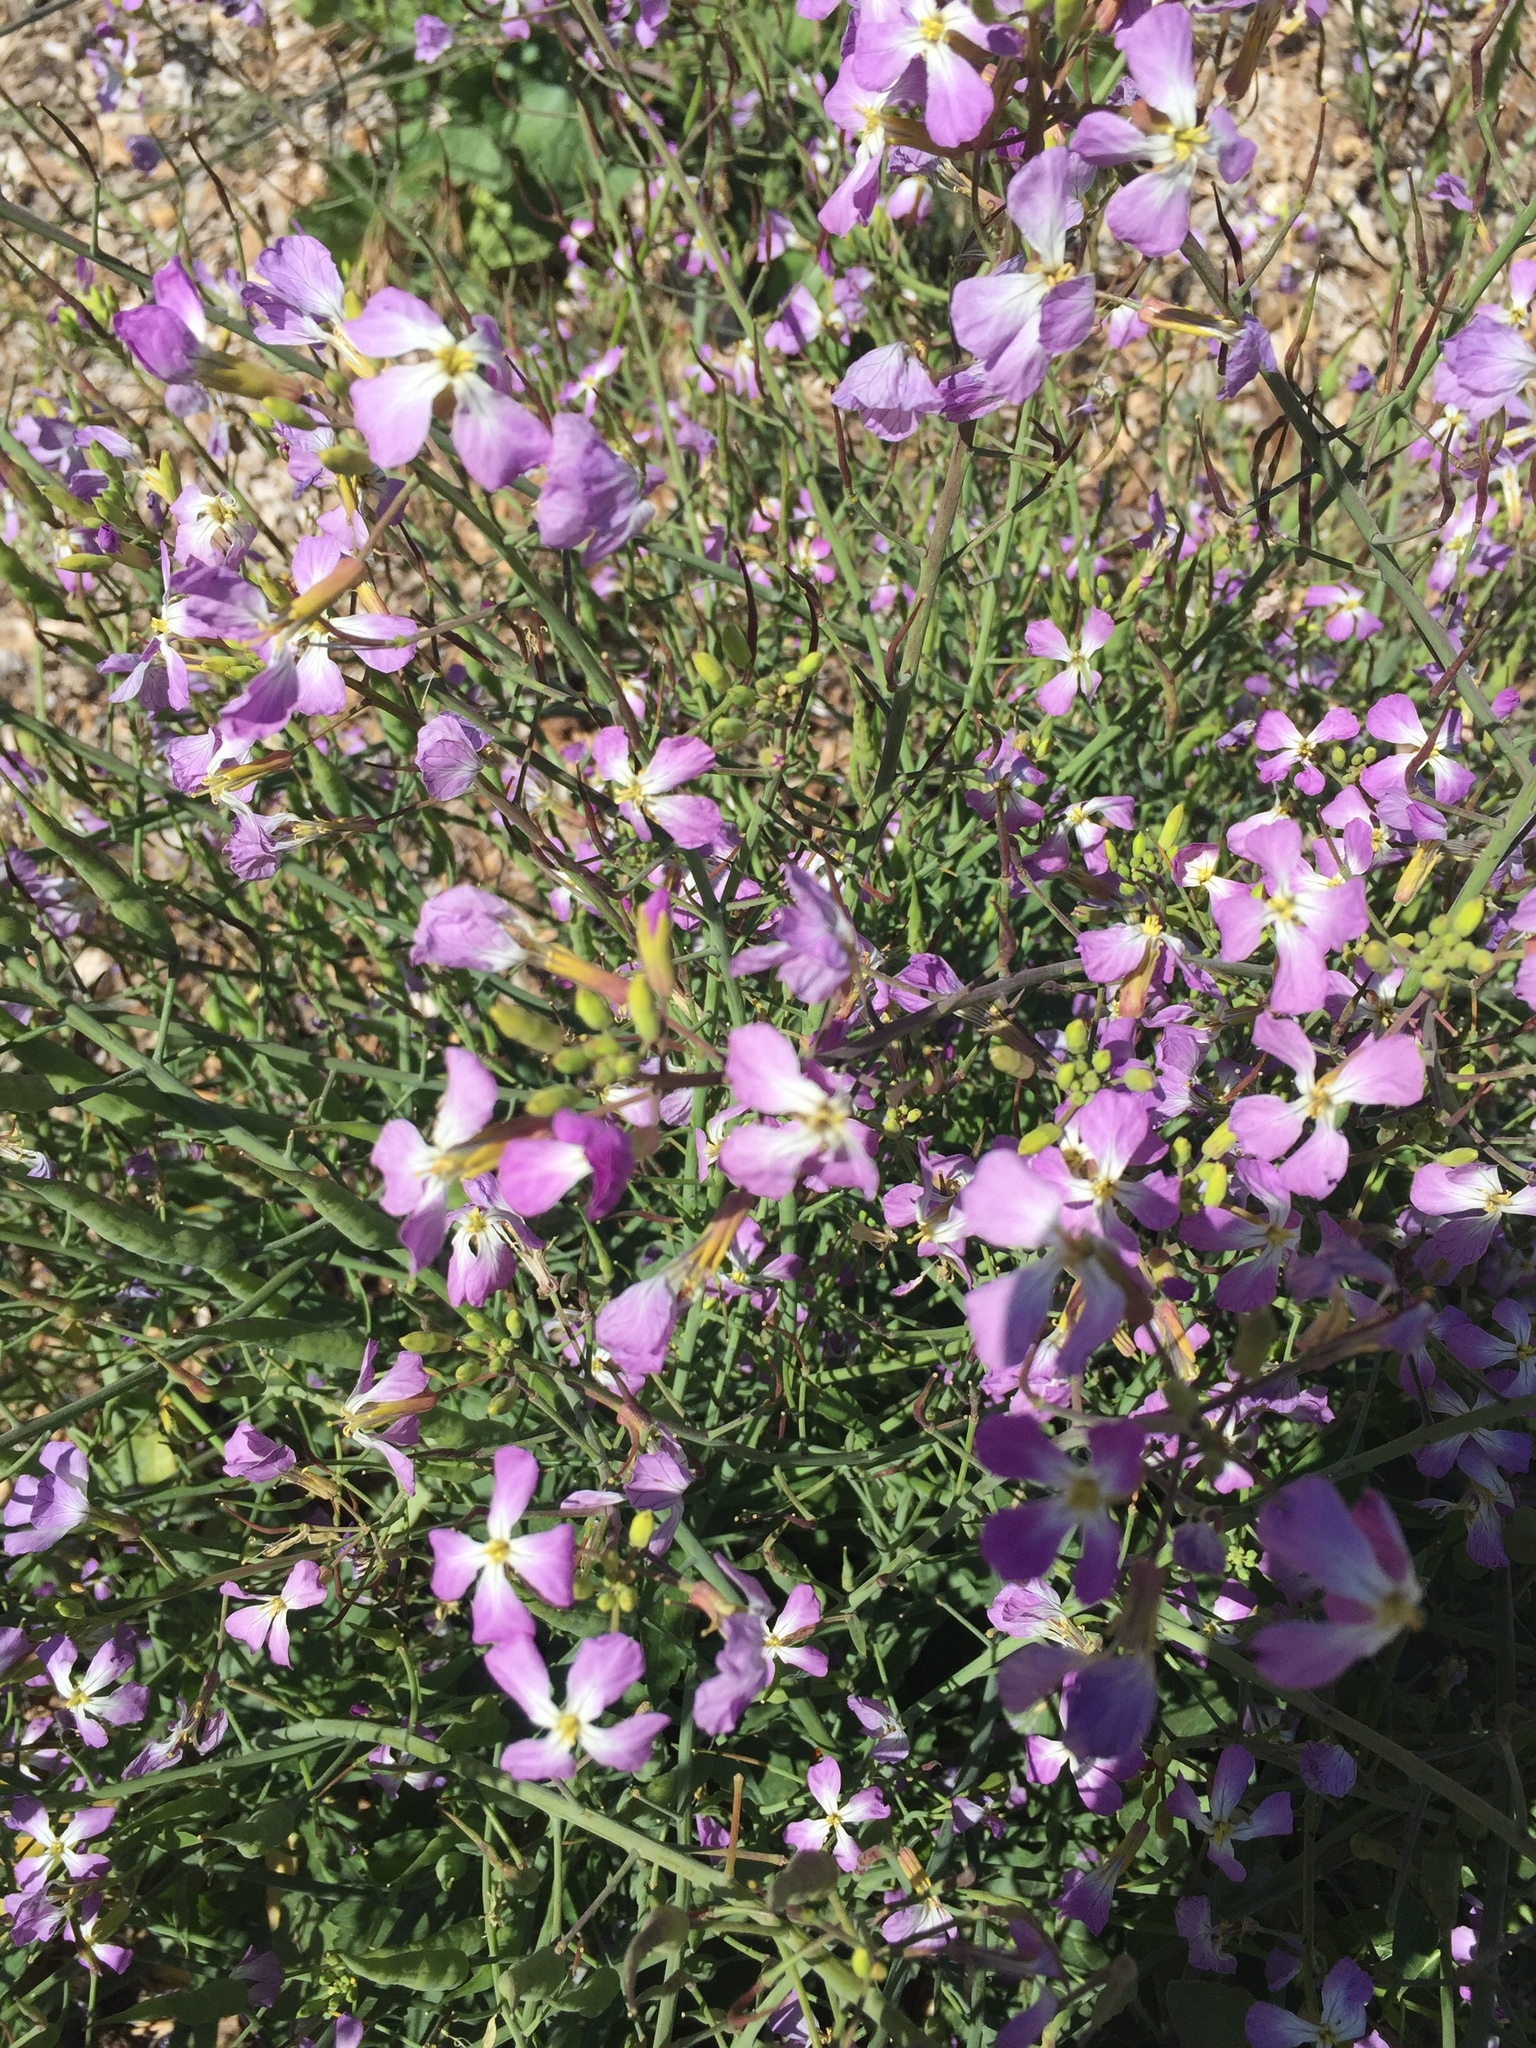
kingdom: Plantae
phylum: Tracheophyta
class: Magnoliopsida
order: Brassicales
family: Brassicaceae
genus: Raphanus
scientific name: Raphanus sativus
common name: Cultivated radish
